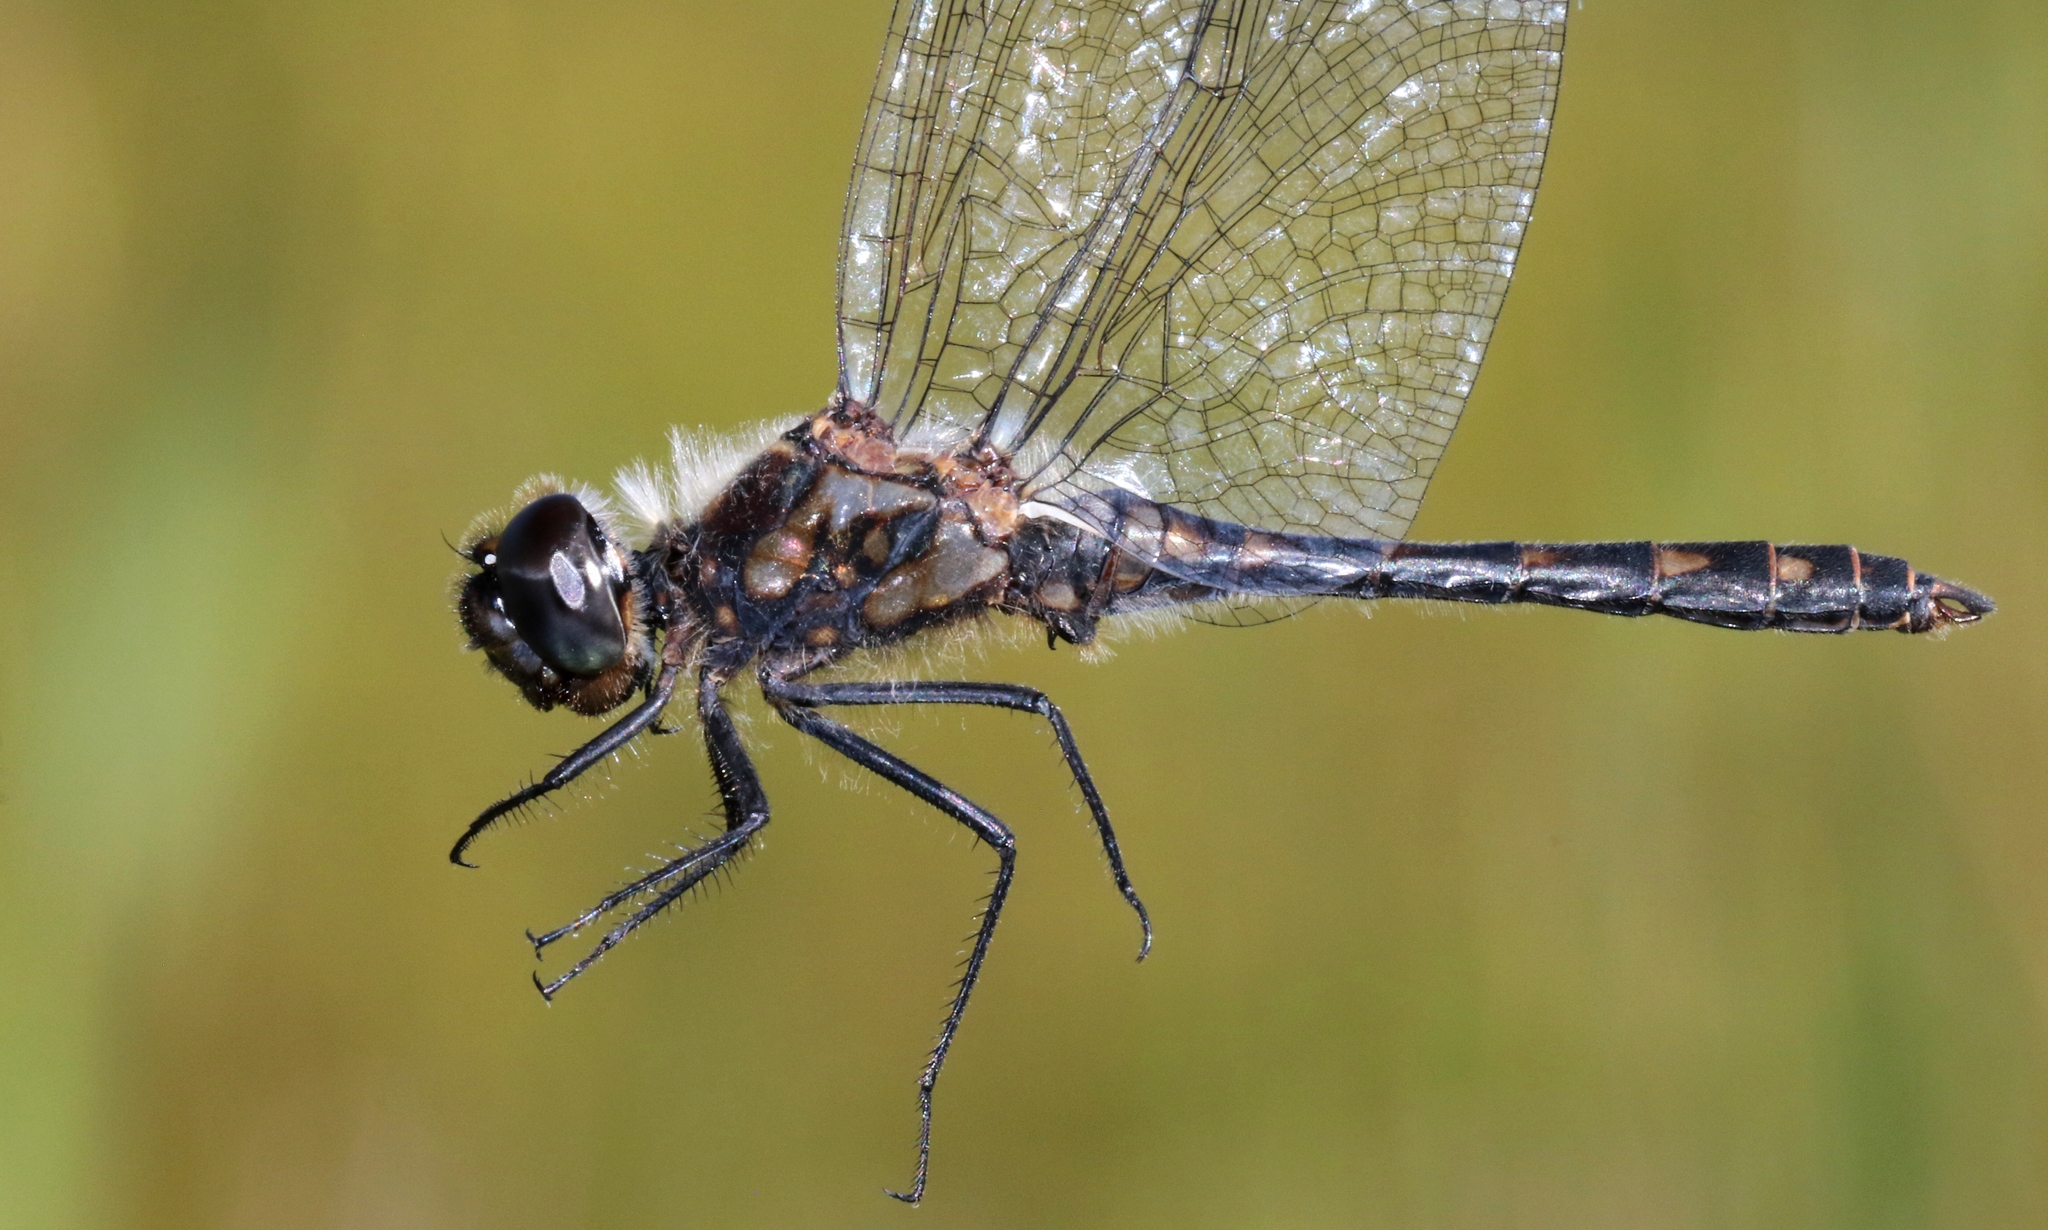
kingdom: Animalia
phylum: Arthropoda
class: Insecta
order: Odonata
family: Libellulidae
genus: Sympetrum
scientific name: Sympetrum danae
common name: Black darter
